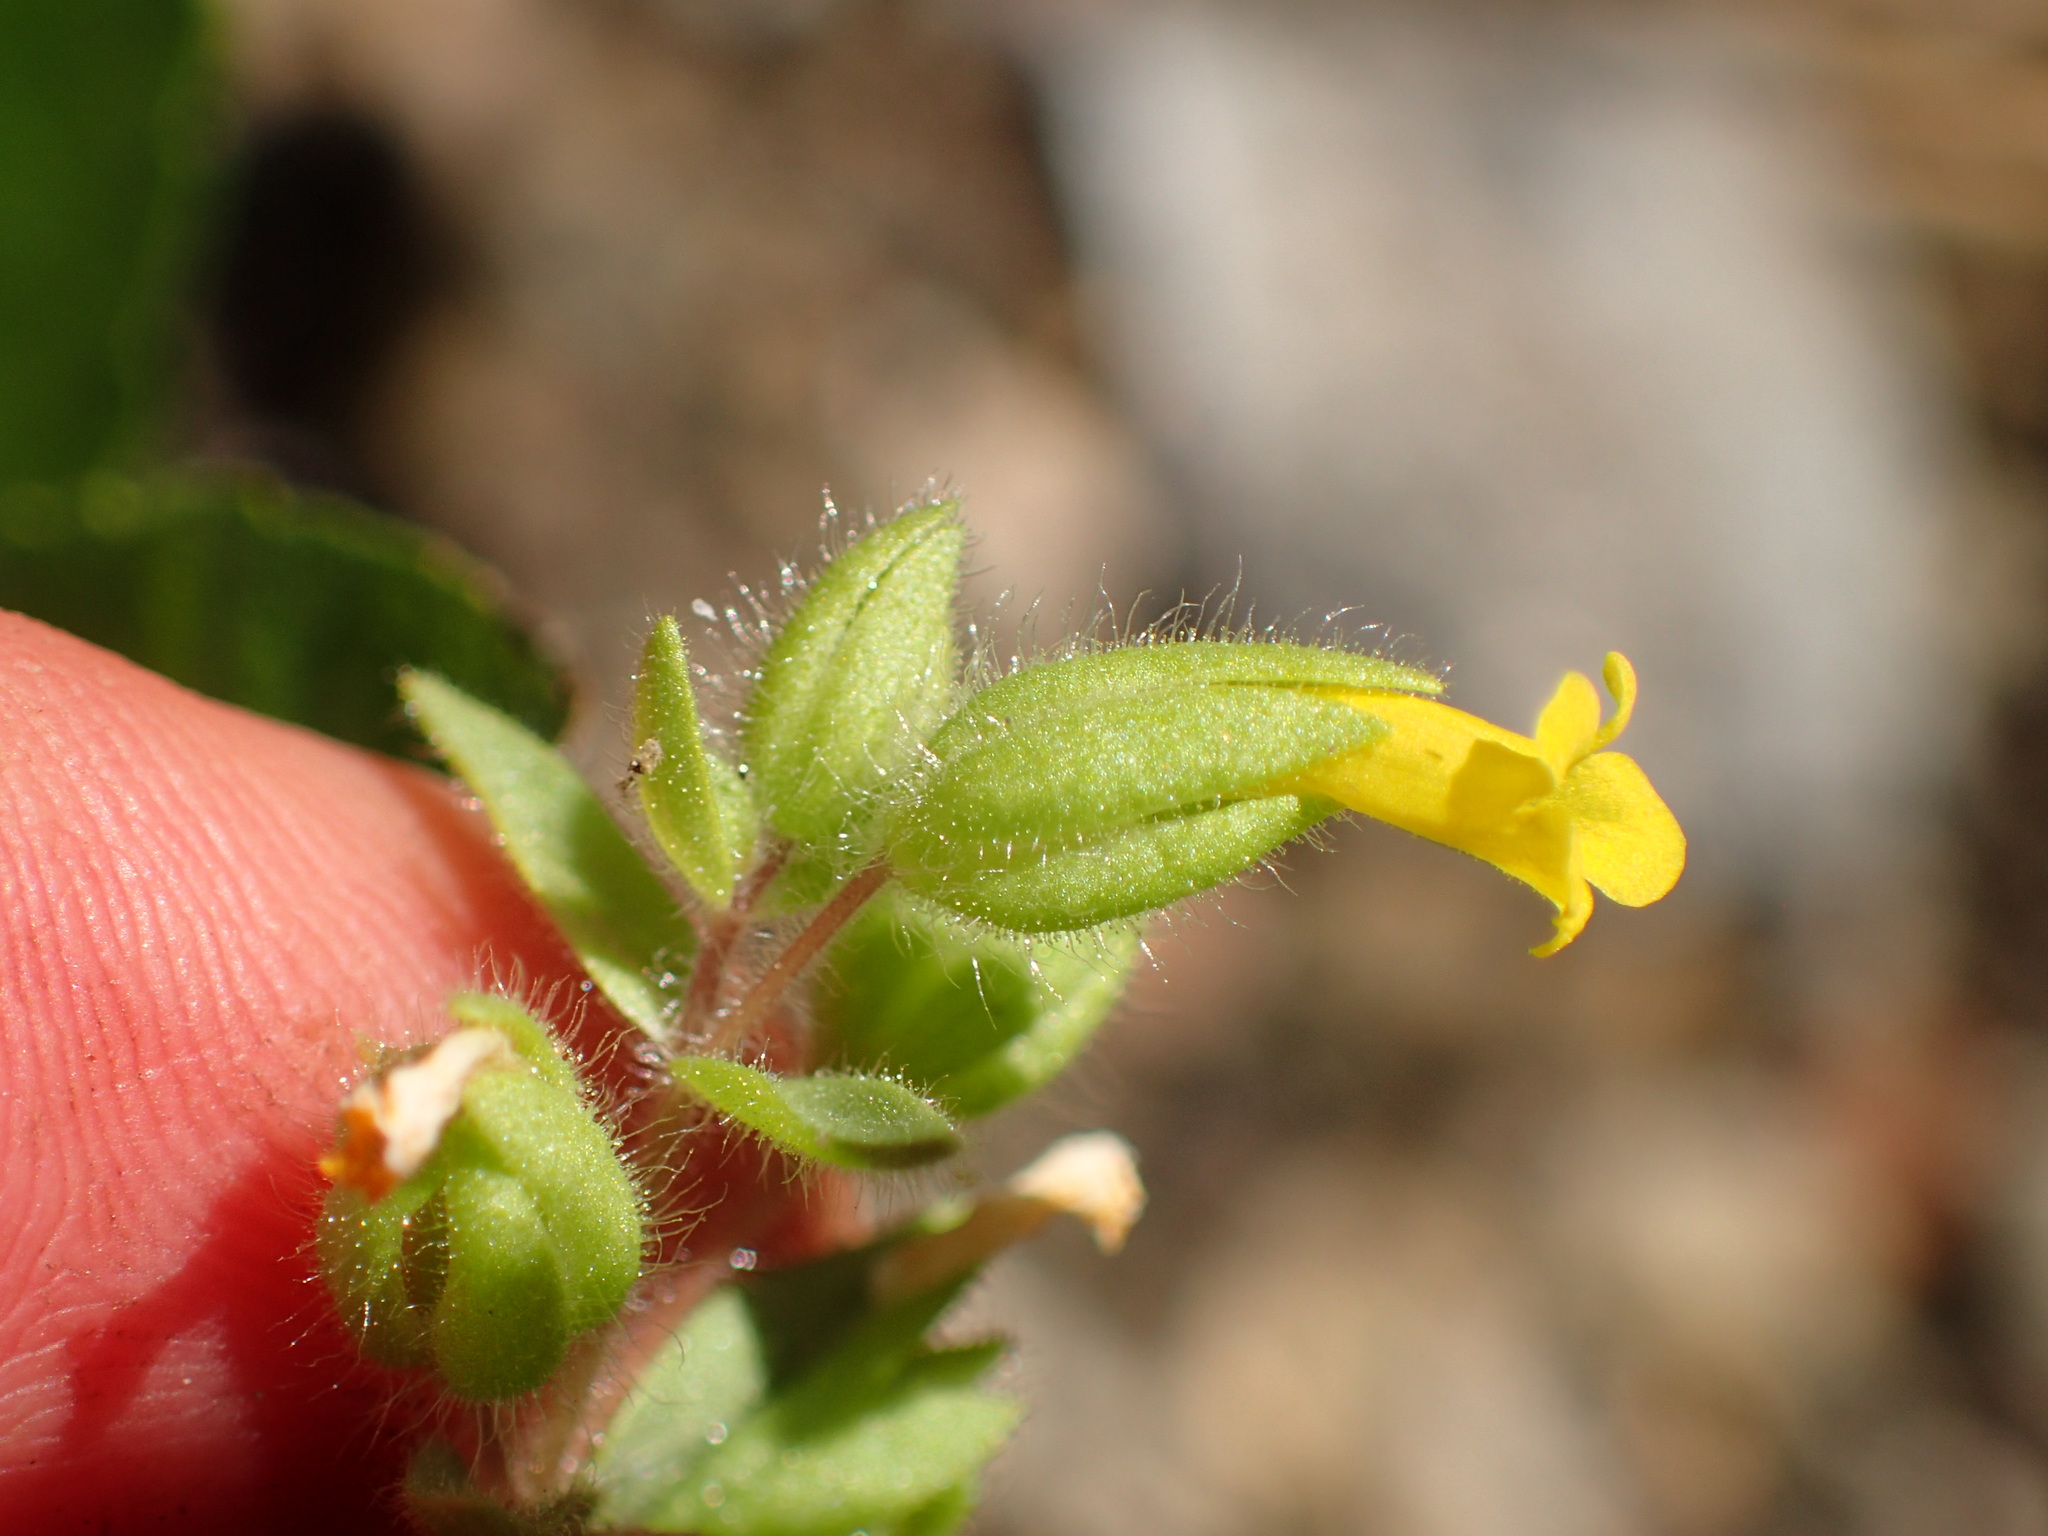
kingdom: Plantae
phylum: Tracheophyta
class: Magnoliopsida
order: Lamiales
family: Phrymaceae
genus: Mimetanthe
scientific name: Mimetanthe pilosa
